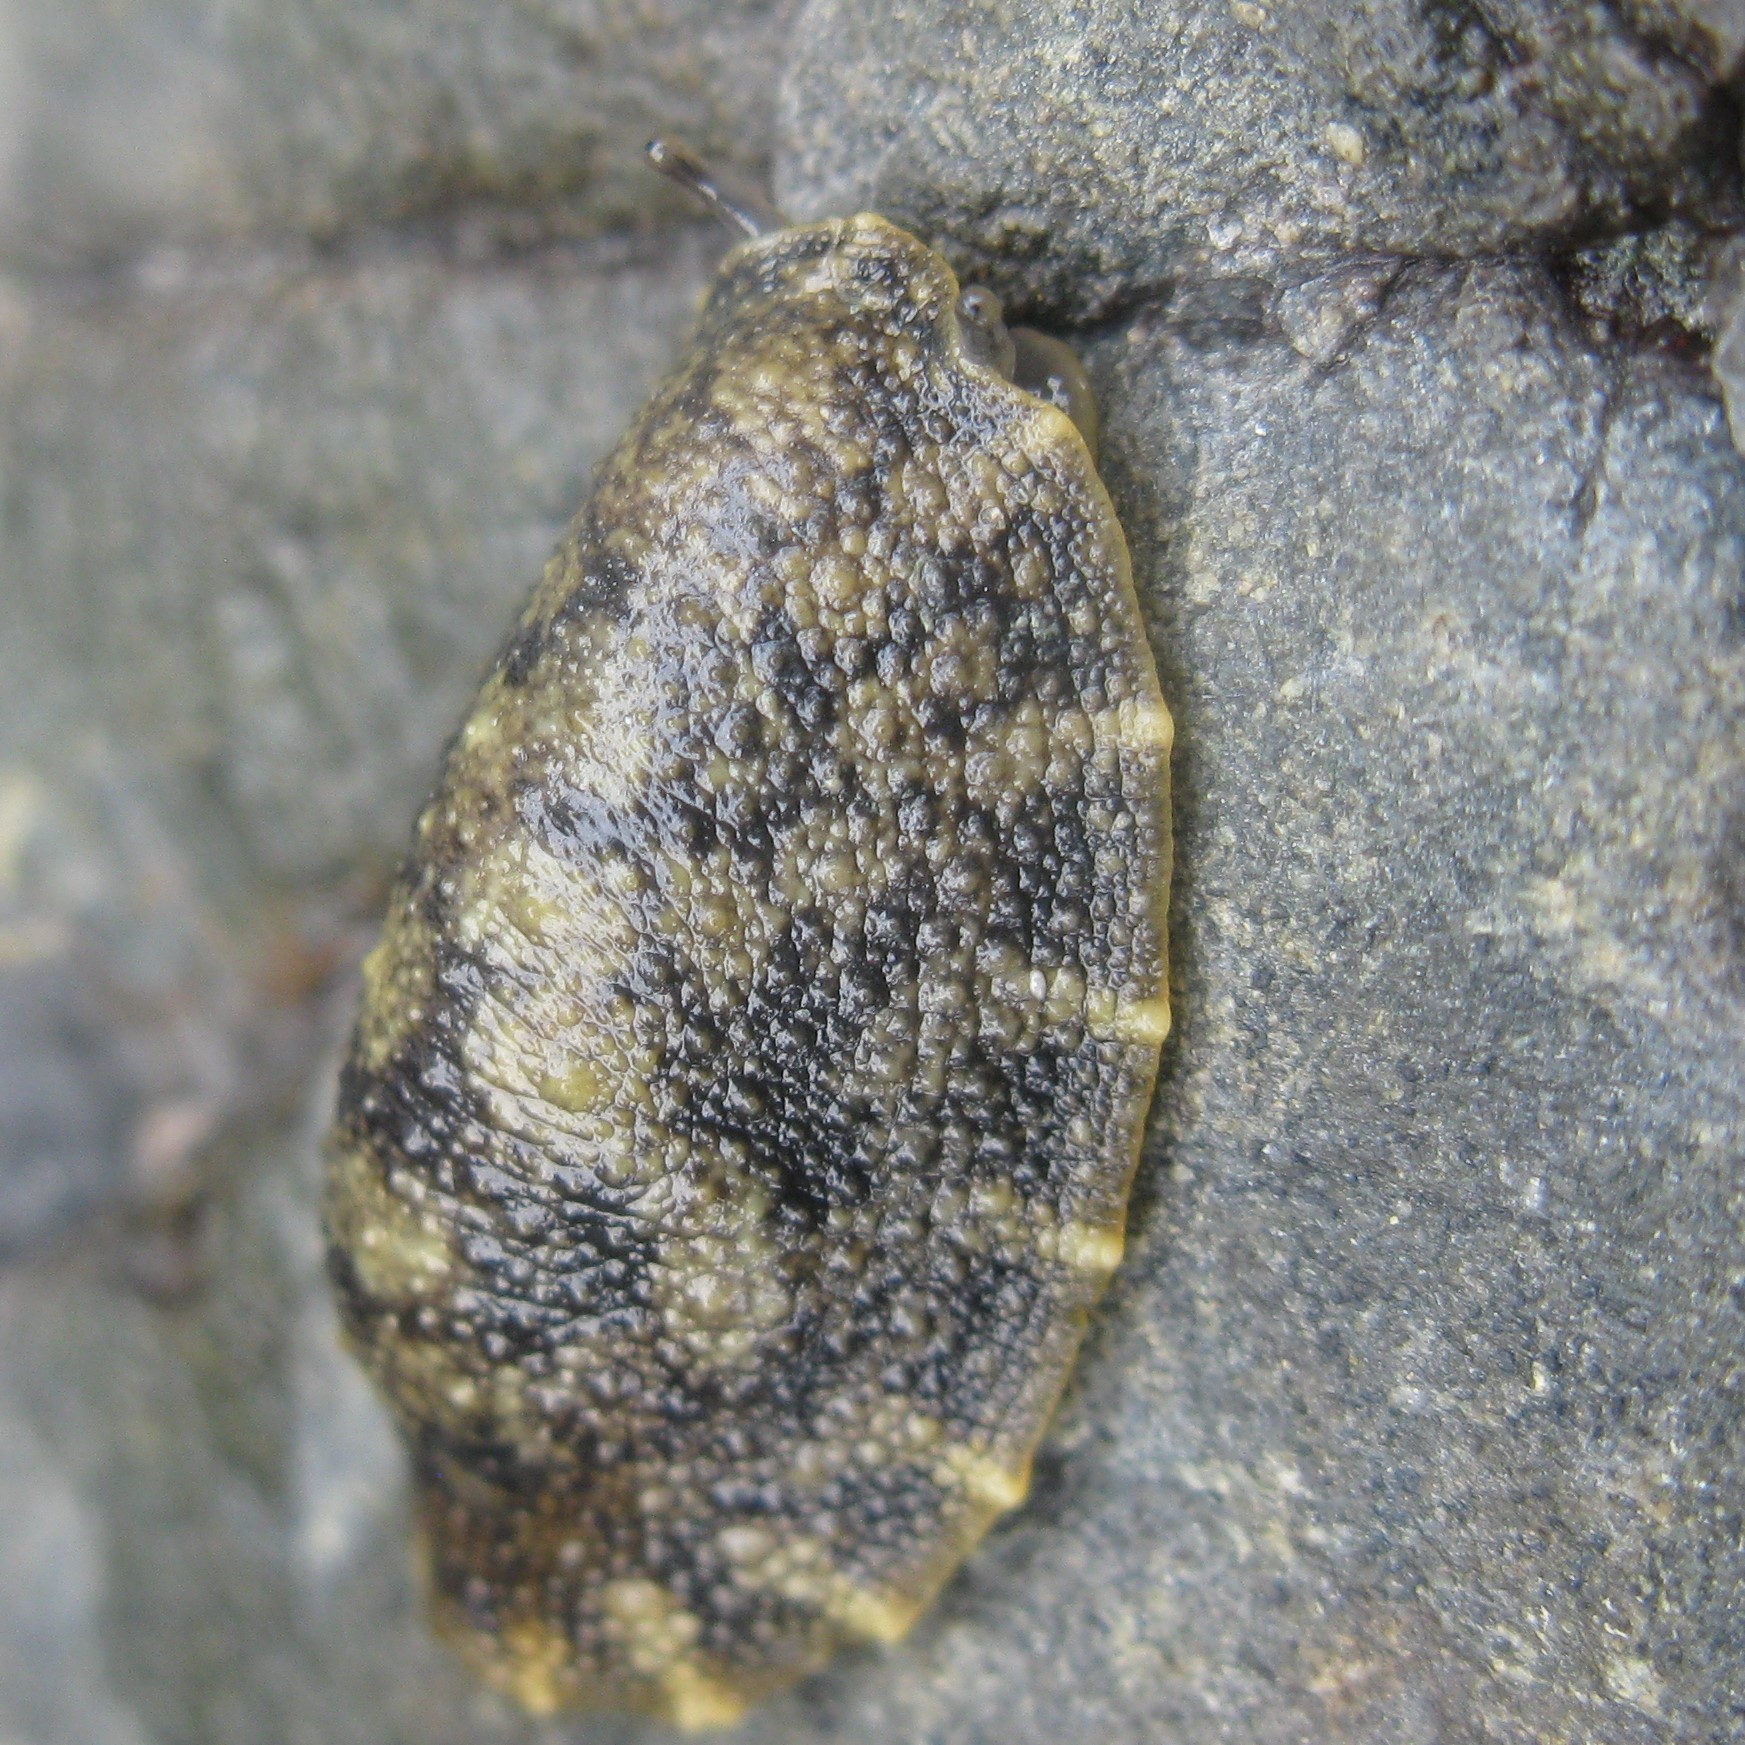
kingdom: Animalia
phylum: Mollusca
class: Gastropoda
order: Systellommatophora
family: Onchidiidae
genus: Onchidella
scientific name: Onchidella nigricans
